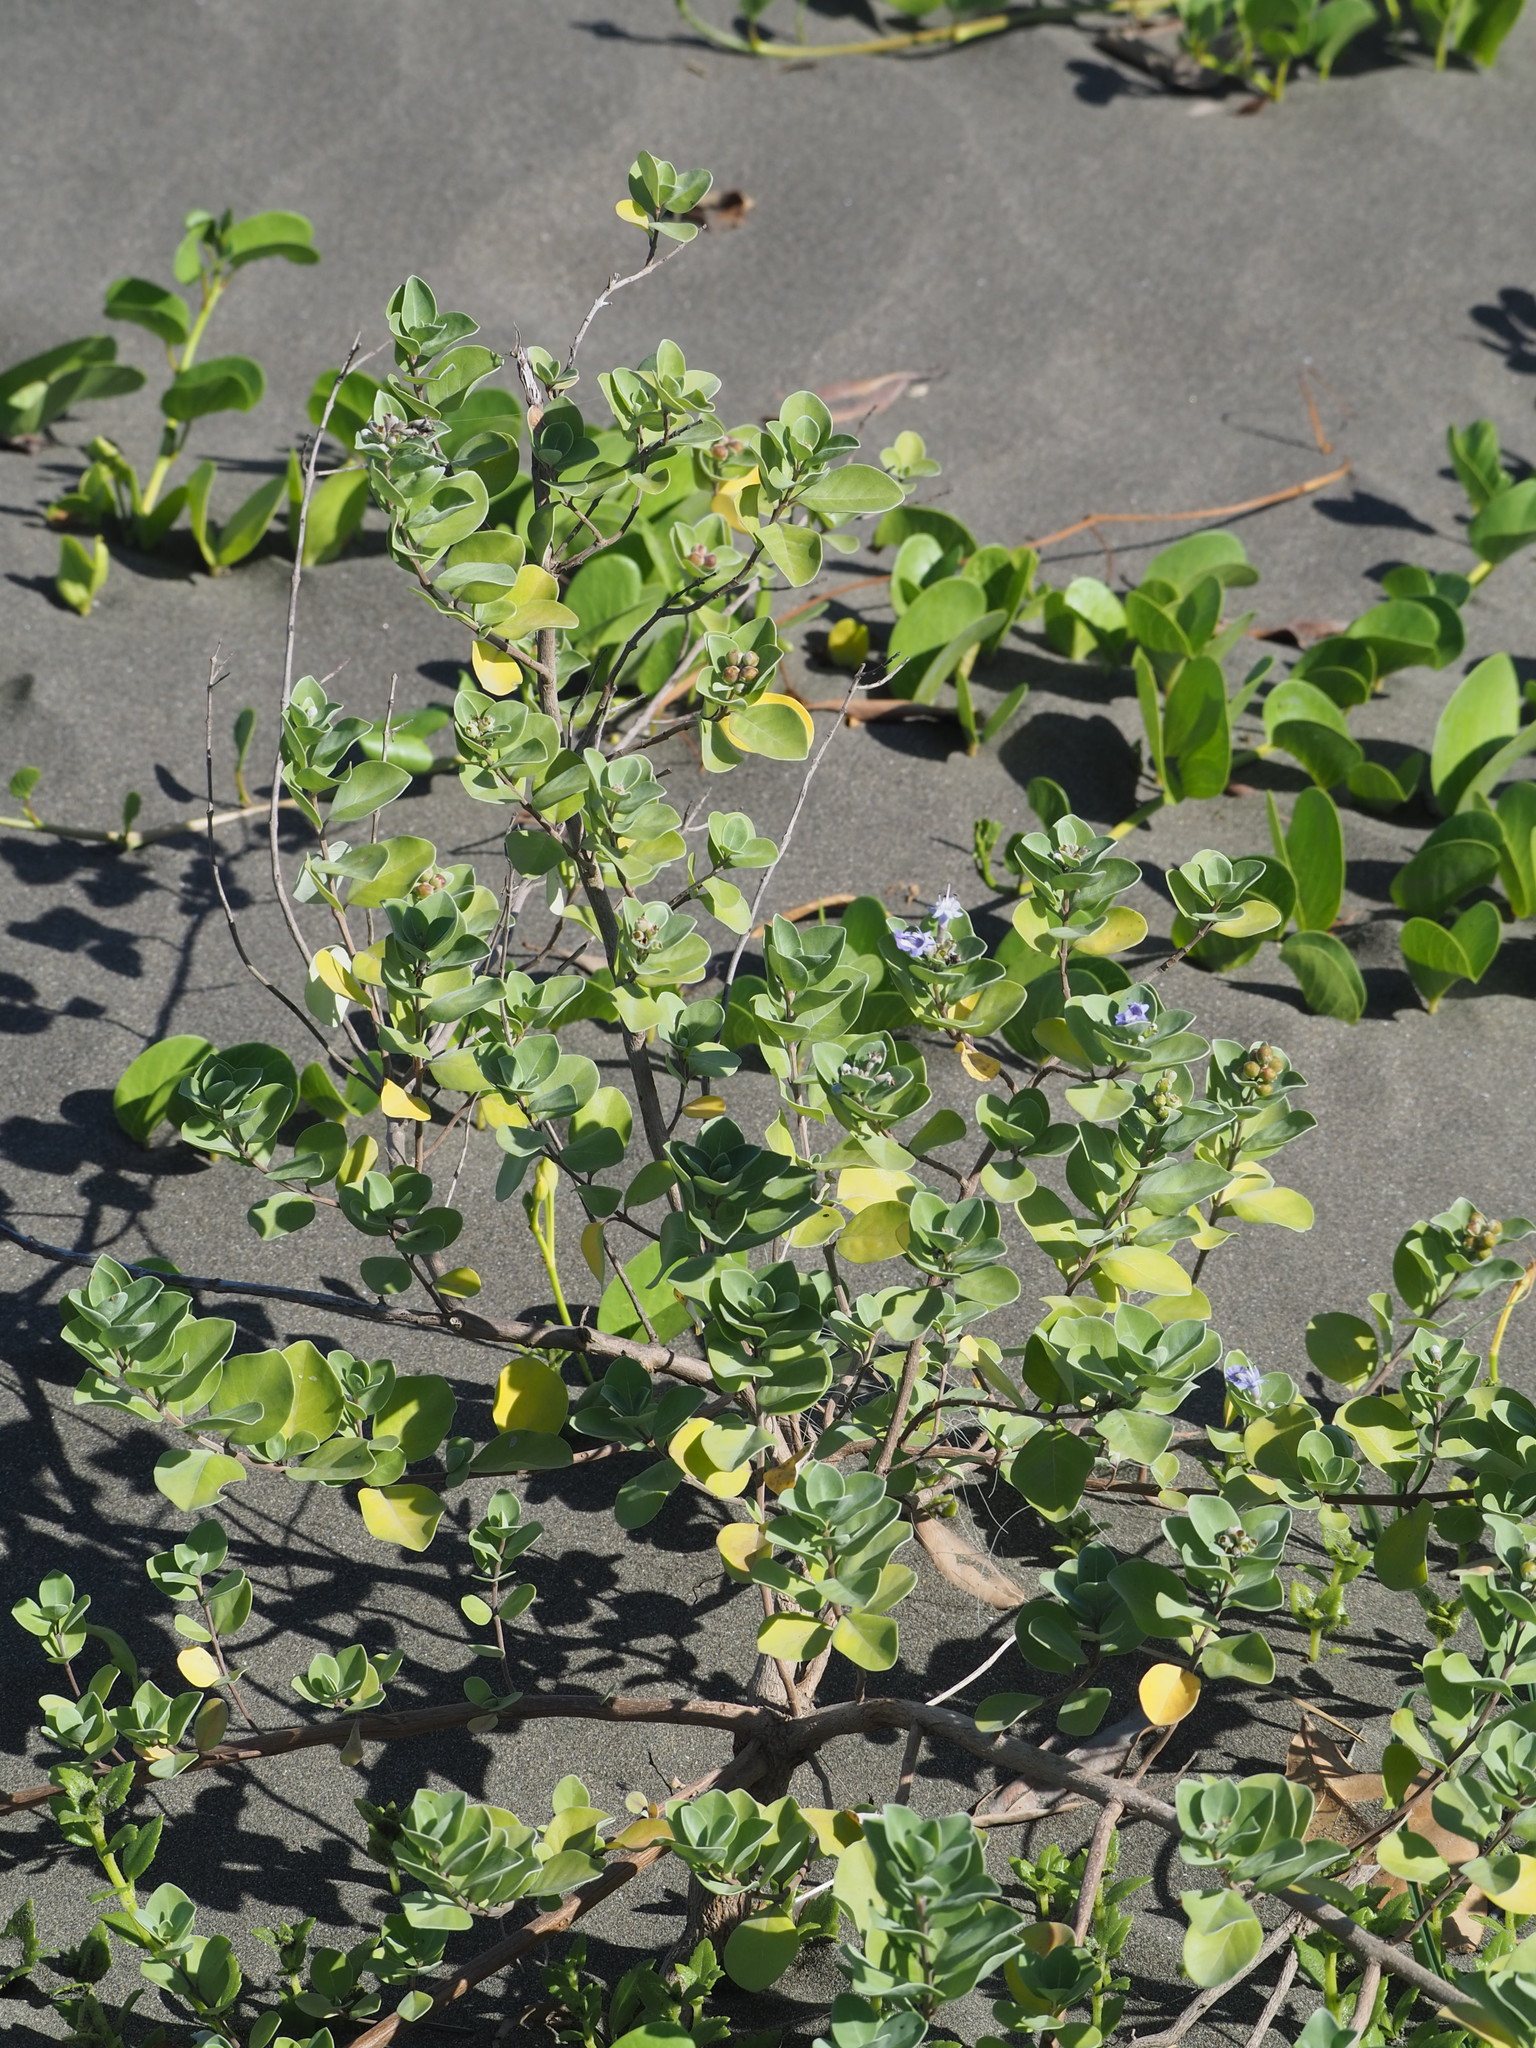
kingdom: Plantae
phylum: Tracheophyta
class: Magnoliopsida
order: Lamiales
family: Lamiaceae
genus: Vitex
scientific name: Vitex rotundifolia
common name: Beach vitex
